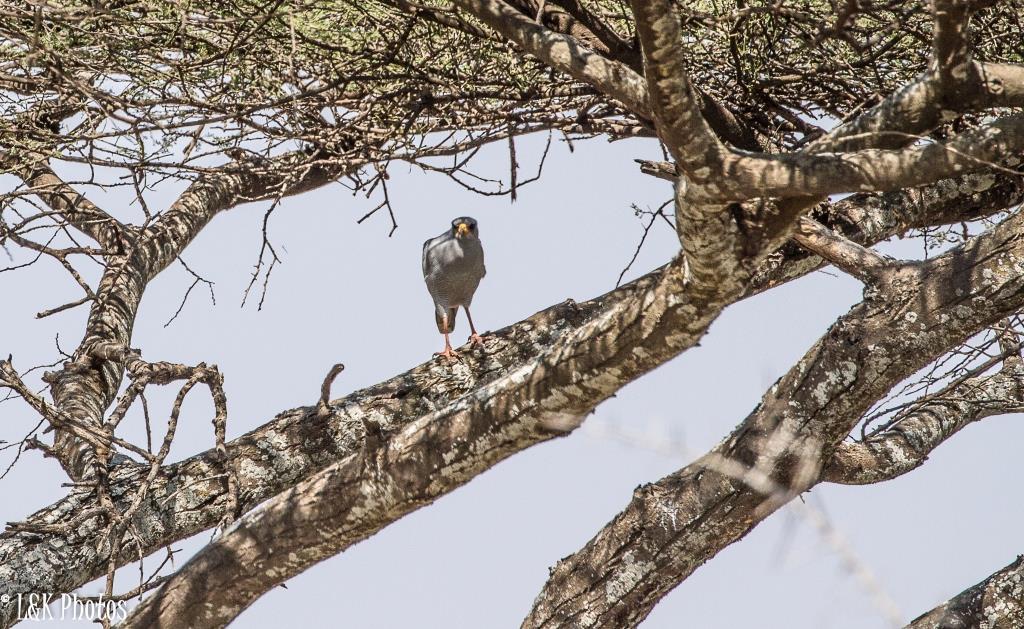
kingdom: Animalia
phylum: Chordata
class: Aves
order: Accipitriformes
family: Accipitridae
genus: Melierax
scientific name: Melierax poliopterus
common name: Eastern chanting goshawk
